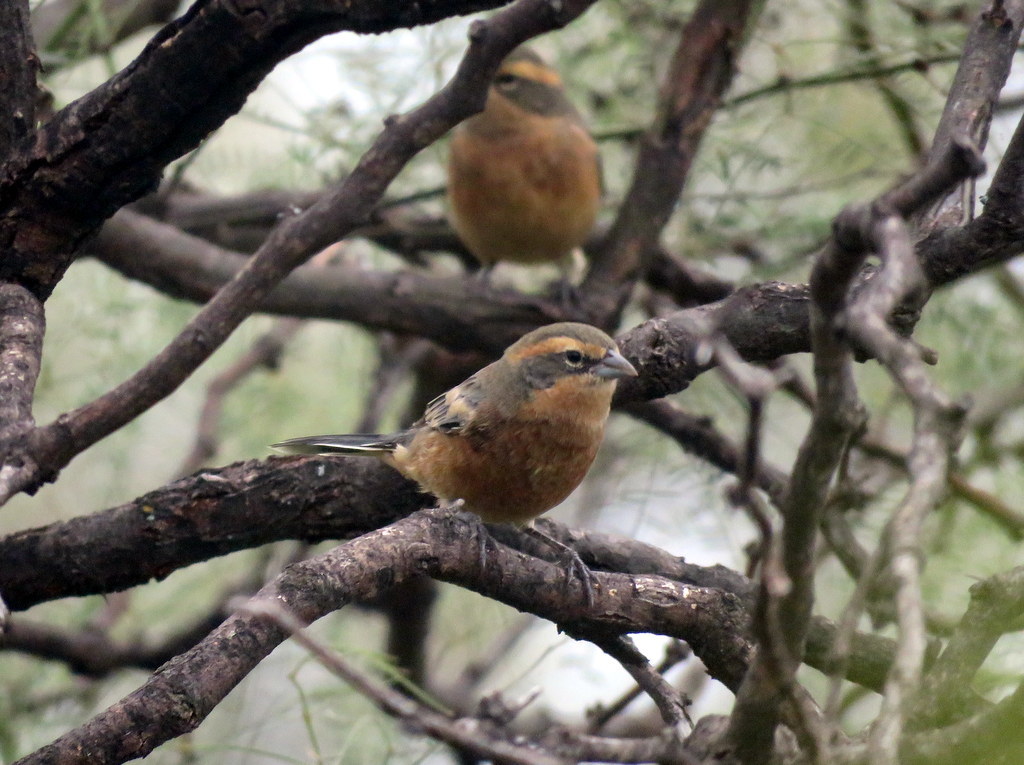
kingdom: Animalia
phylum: Chordata
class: Aves
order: Passeriformes
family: Thraupidae
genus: Poospiza
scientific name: Poospiza ornata
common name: Cinnamon warbling finch
